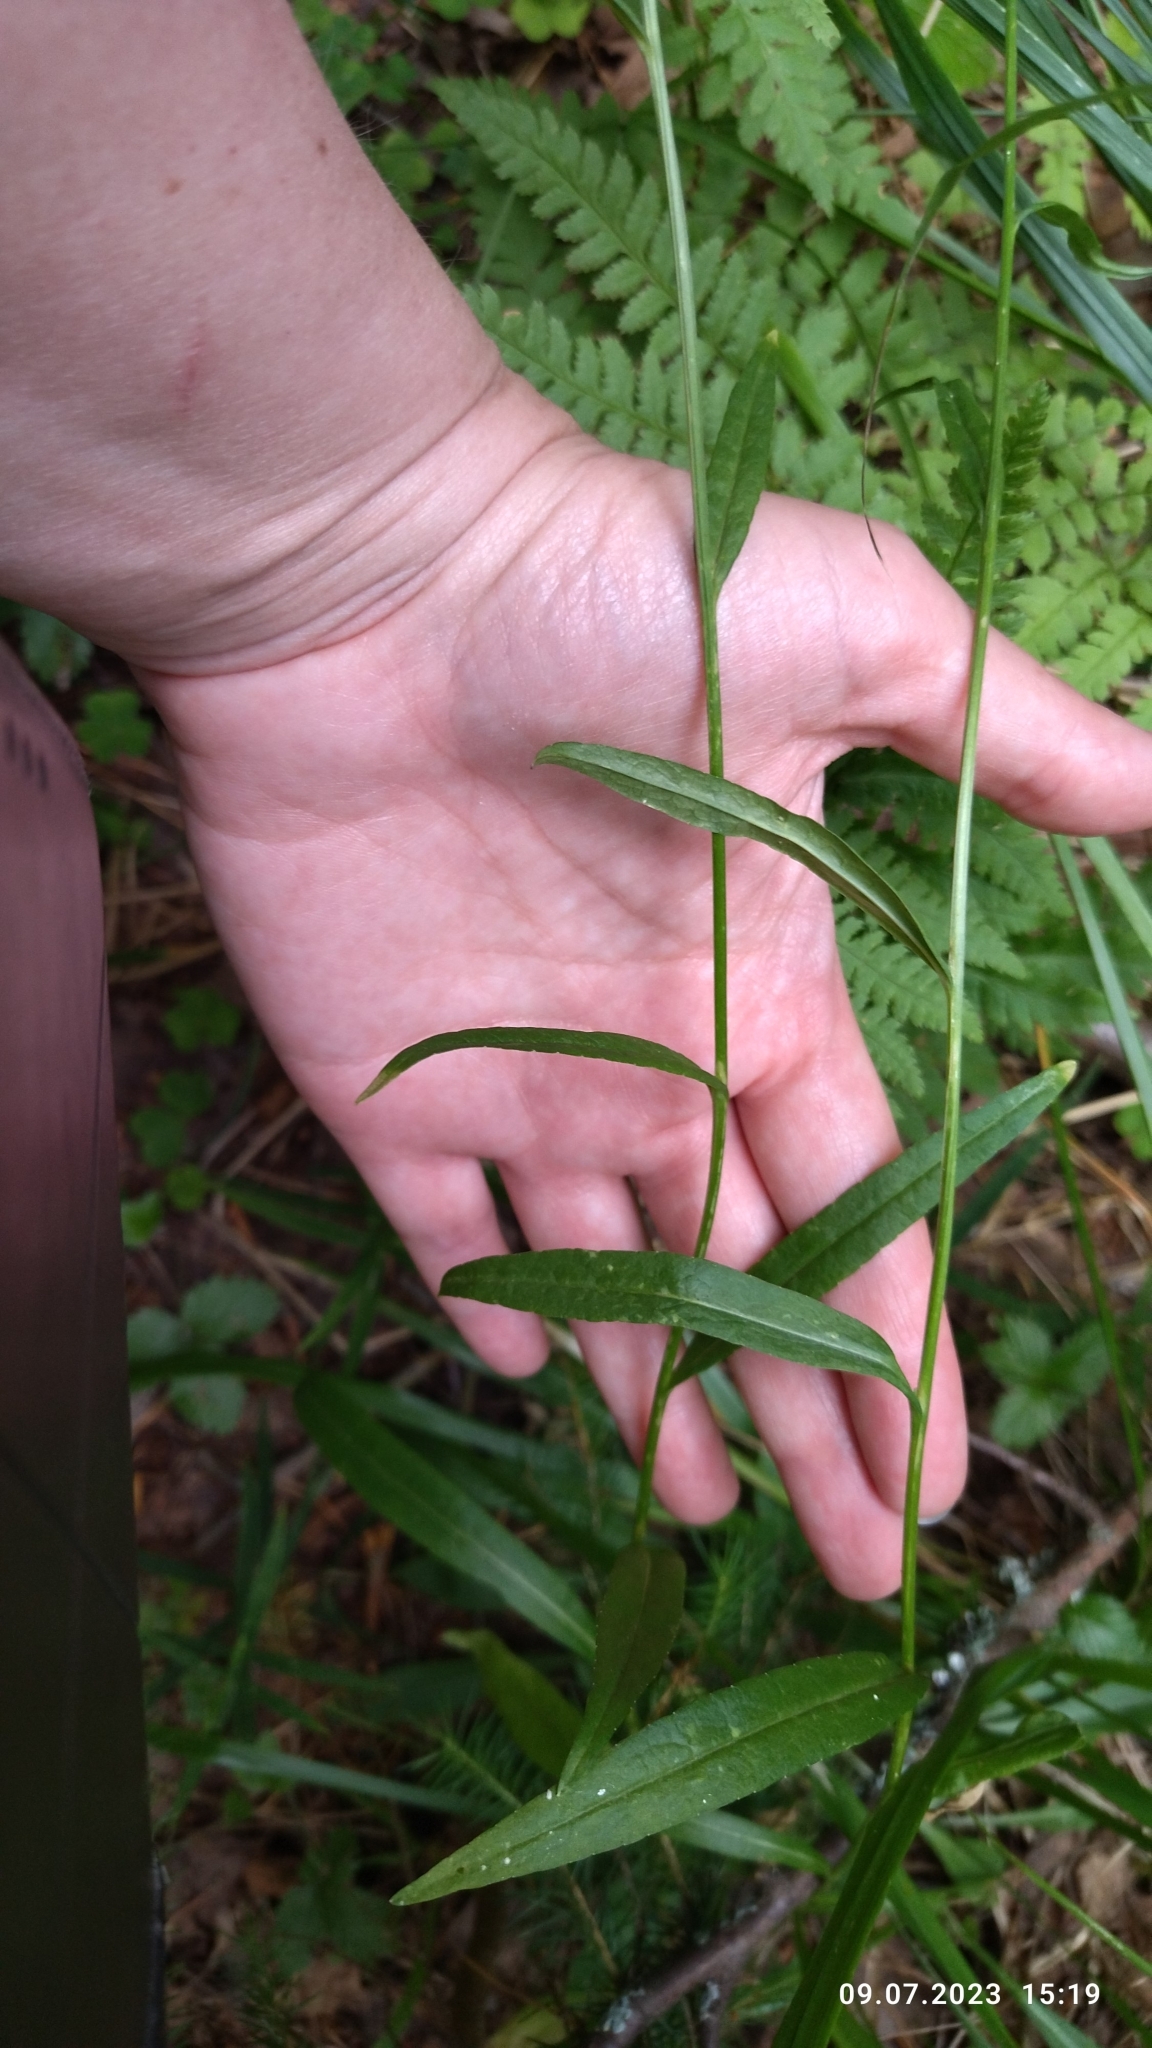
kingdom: Plantae
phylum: Tracheophyta
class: Magnoliopsida
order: Asterales
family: Campanulaceae
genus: Campanula
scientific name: Campanula persicifolia
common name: Peach-leaved bellflower
